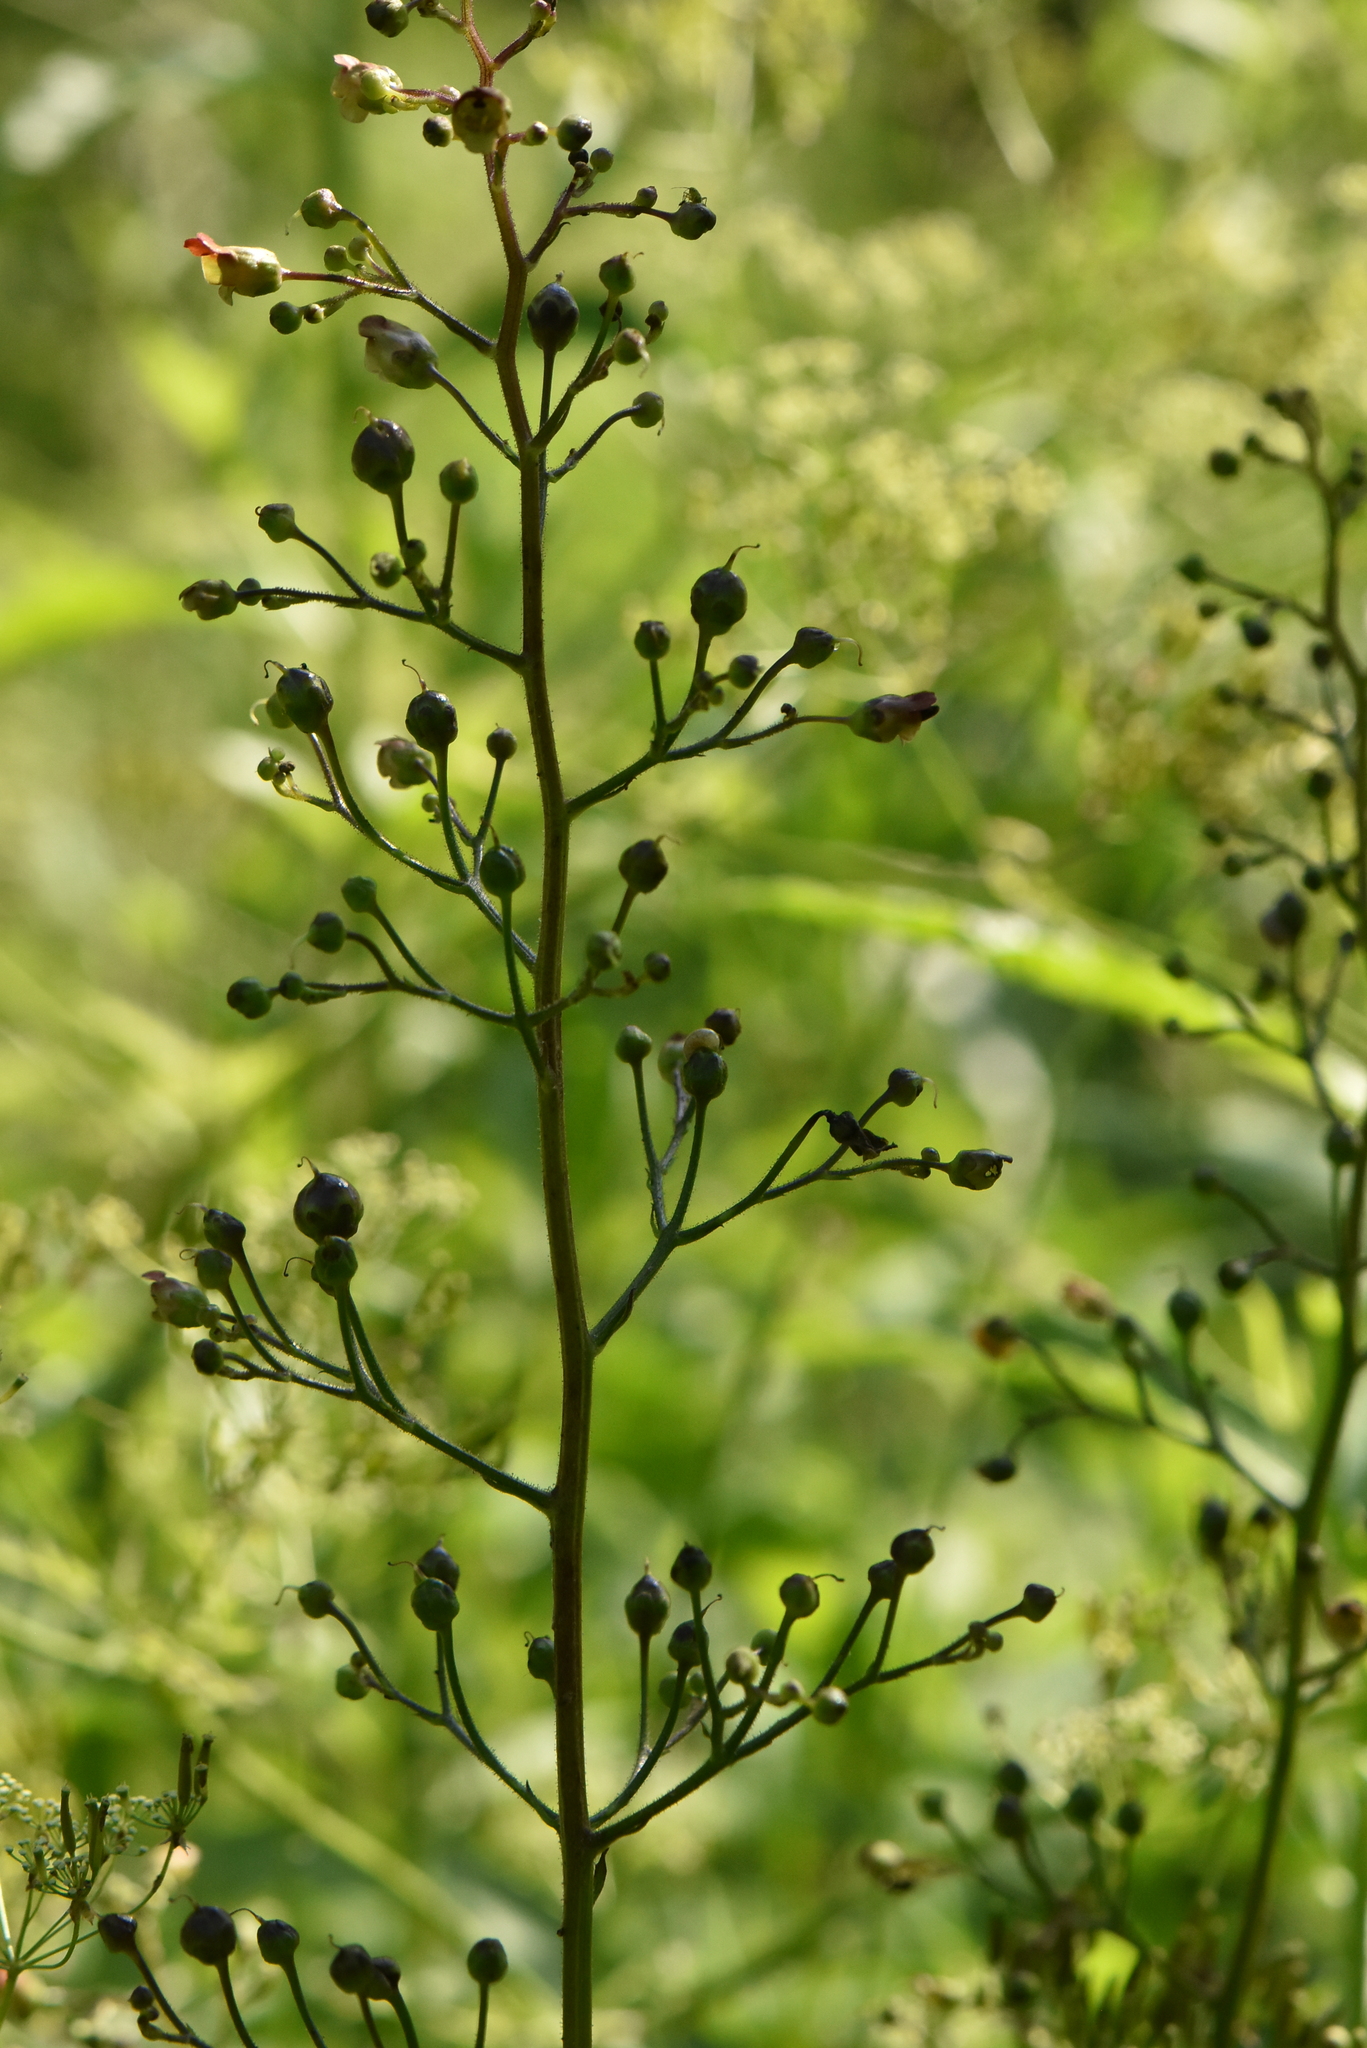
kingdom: Plantae
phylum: Tracheophyta
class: Magnoliopsida
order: Lamiales
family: Scrophulariaceae
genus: Scrophularia
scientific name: Scrophularia nodosa
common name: Common figwort
